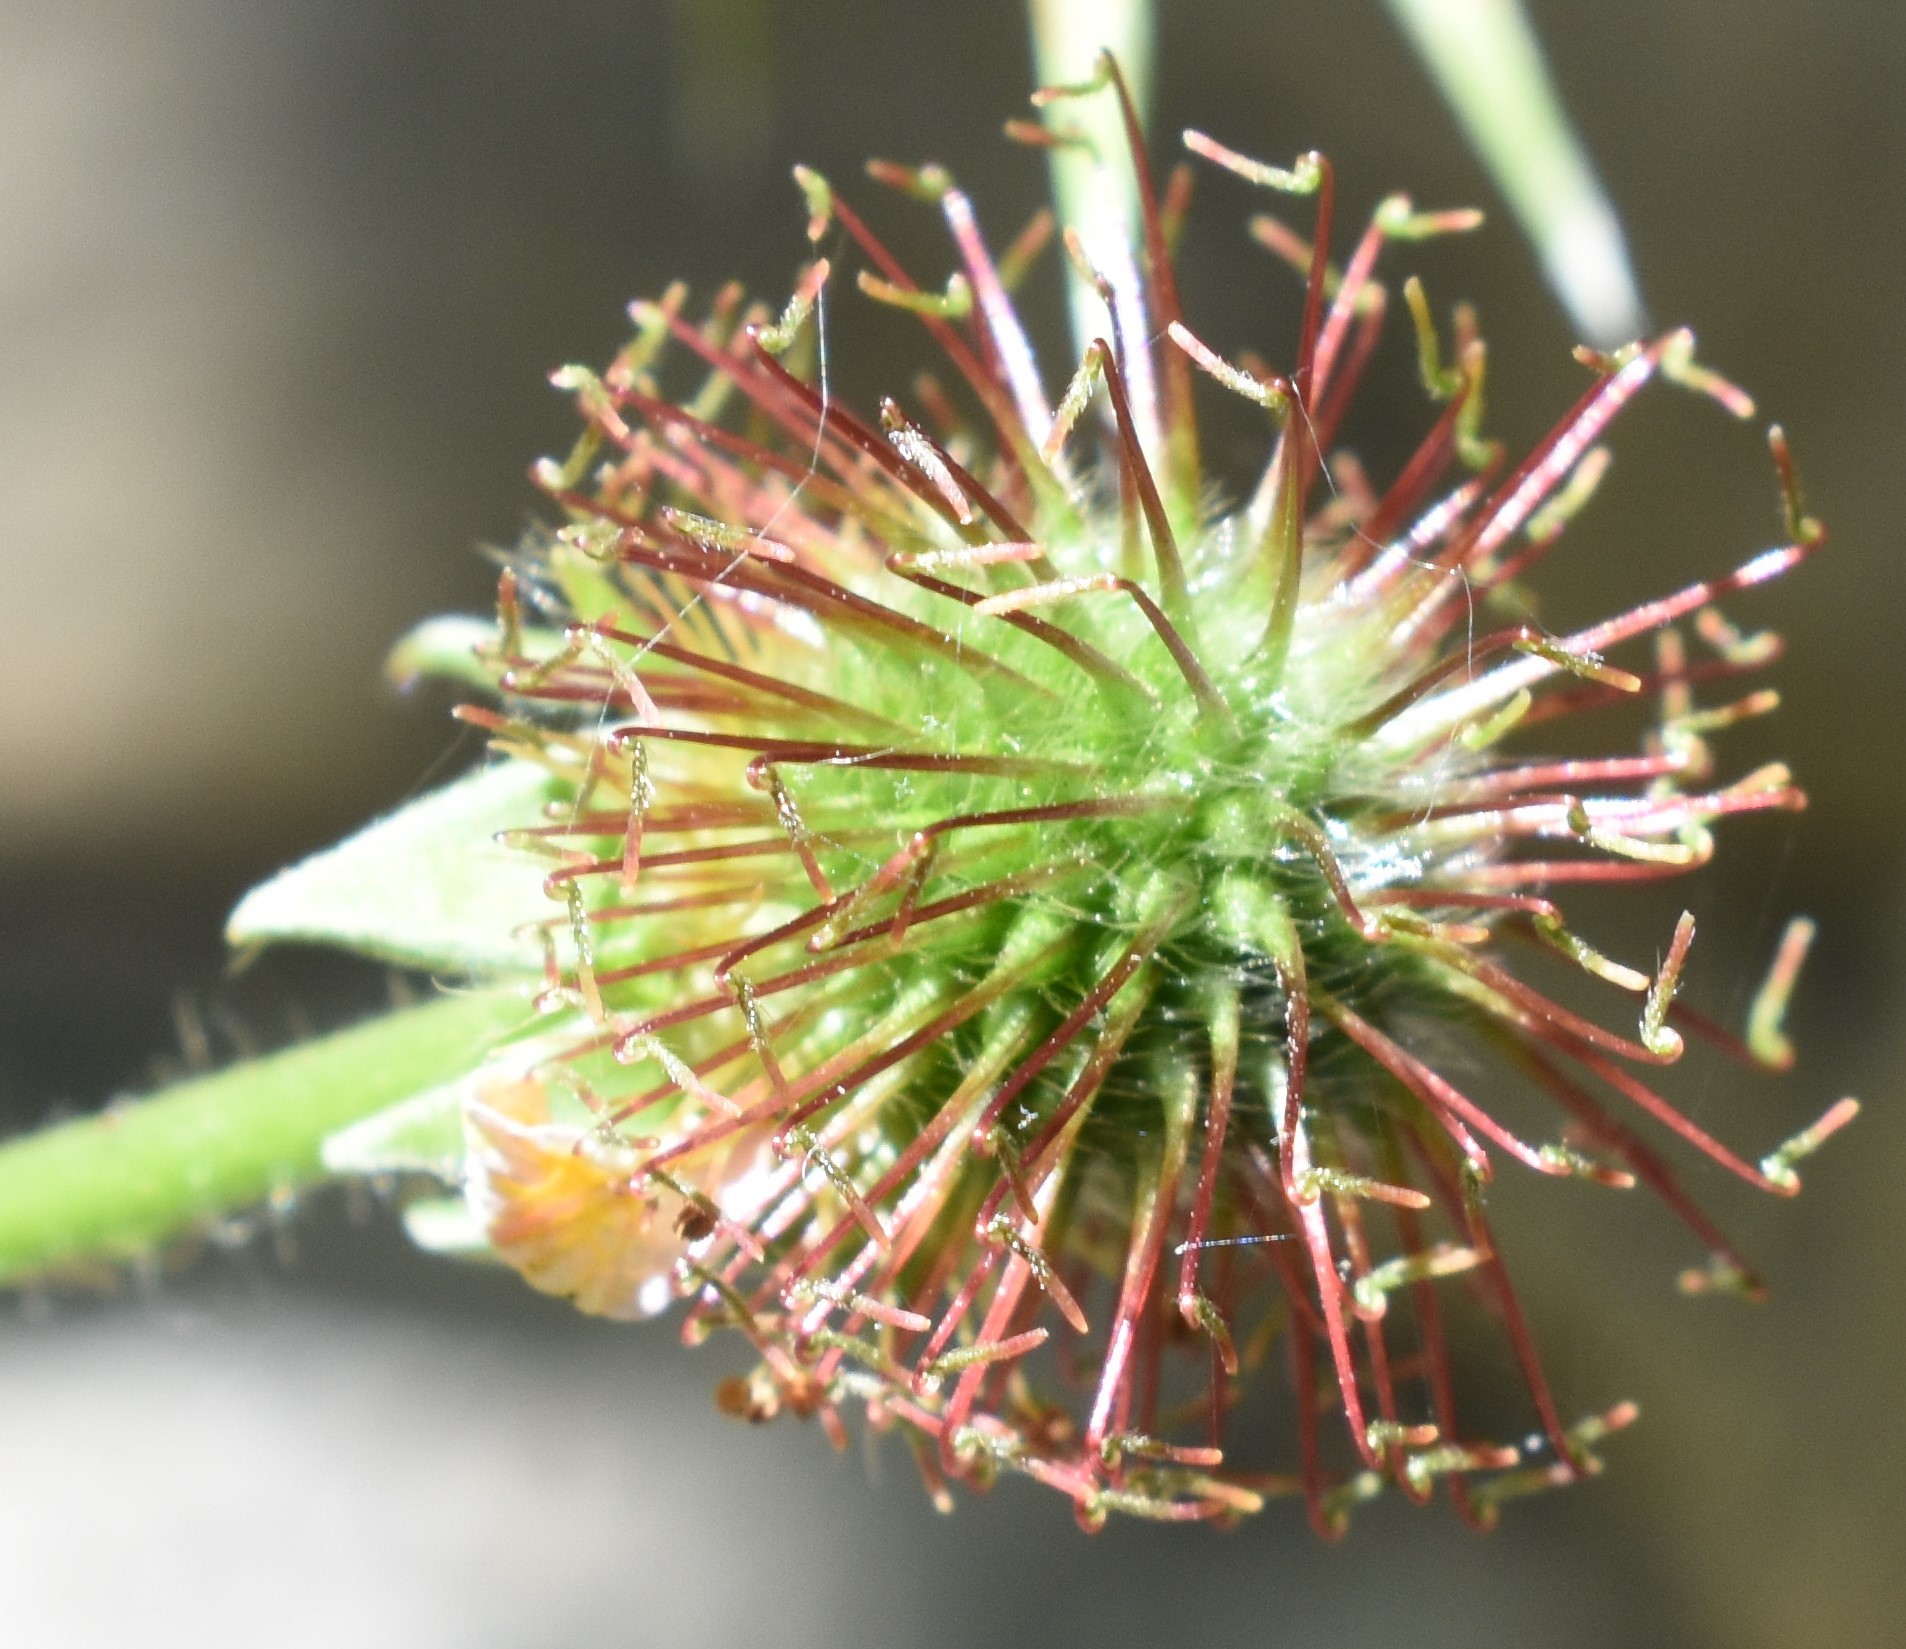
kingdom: Plantae
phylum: Tracheophyta
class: Magnoliopsida
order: Rosales
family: Rosaceae
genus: Geum
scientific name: Geum macrophyllum
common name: Large-leaved avens
